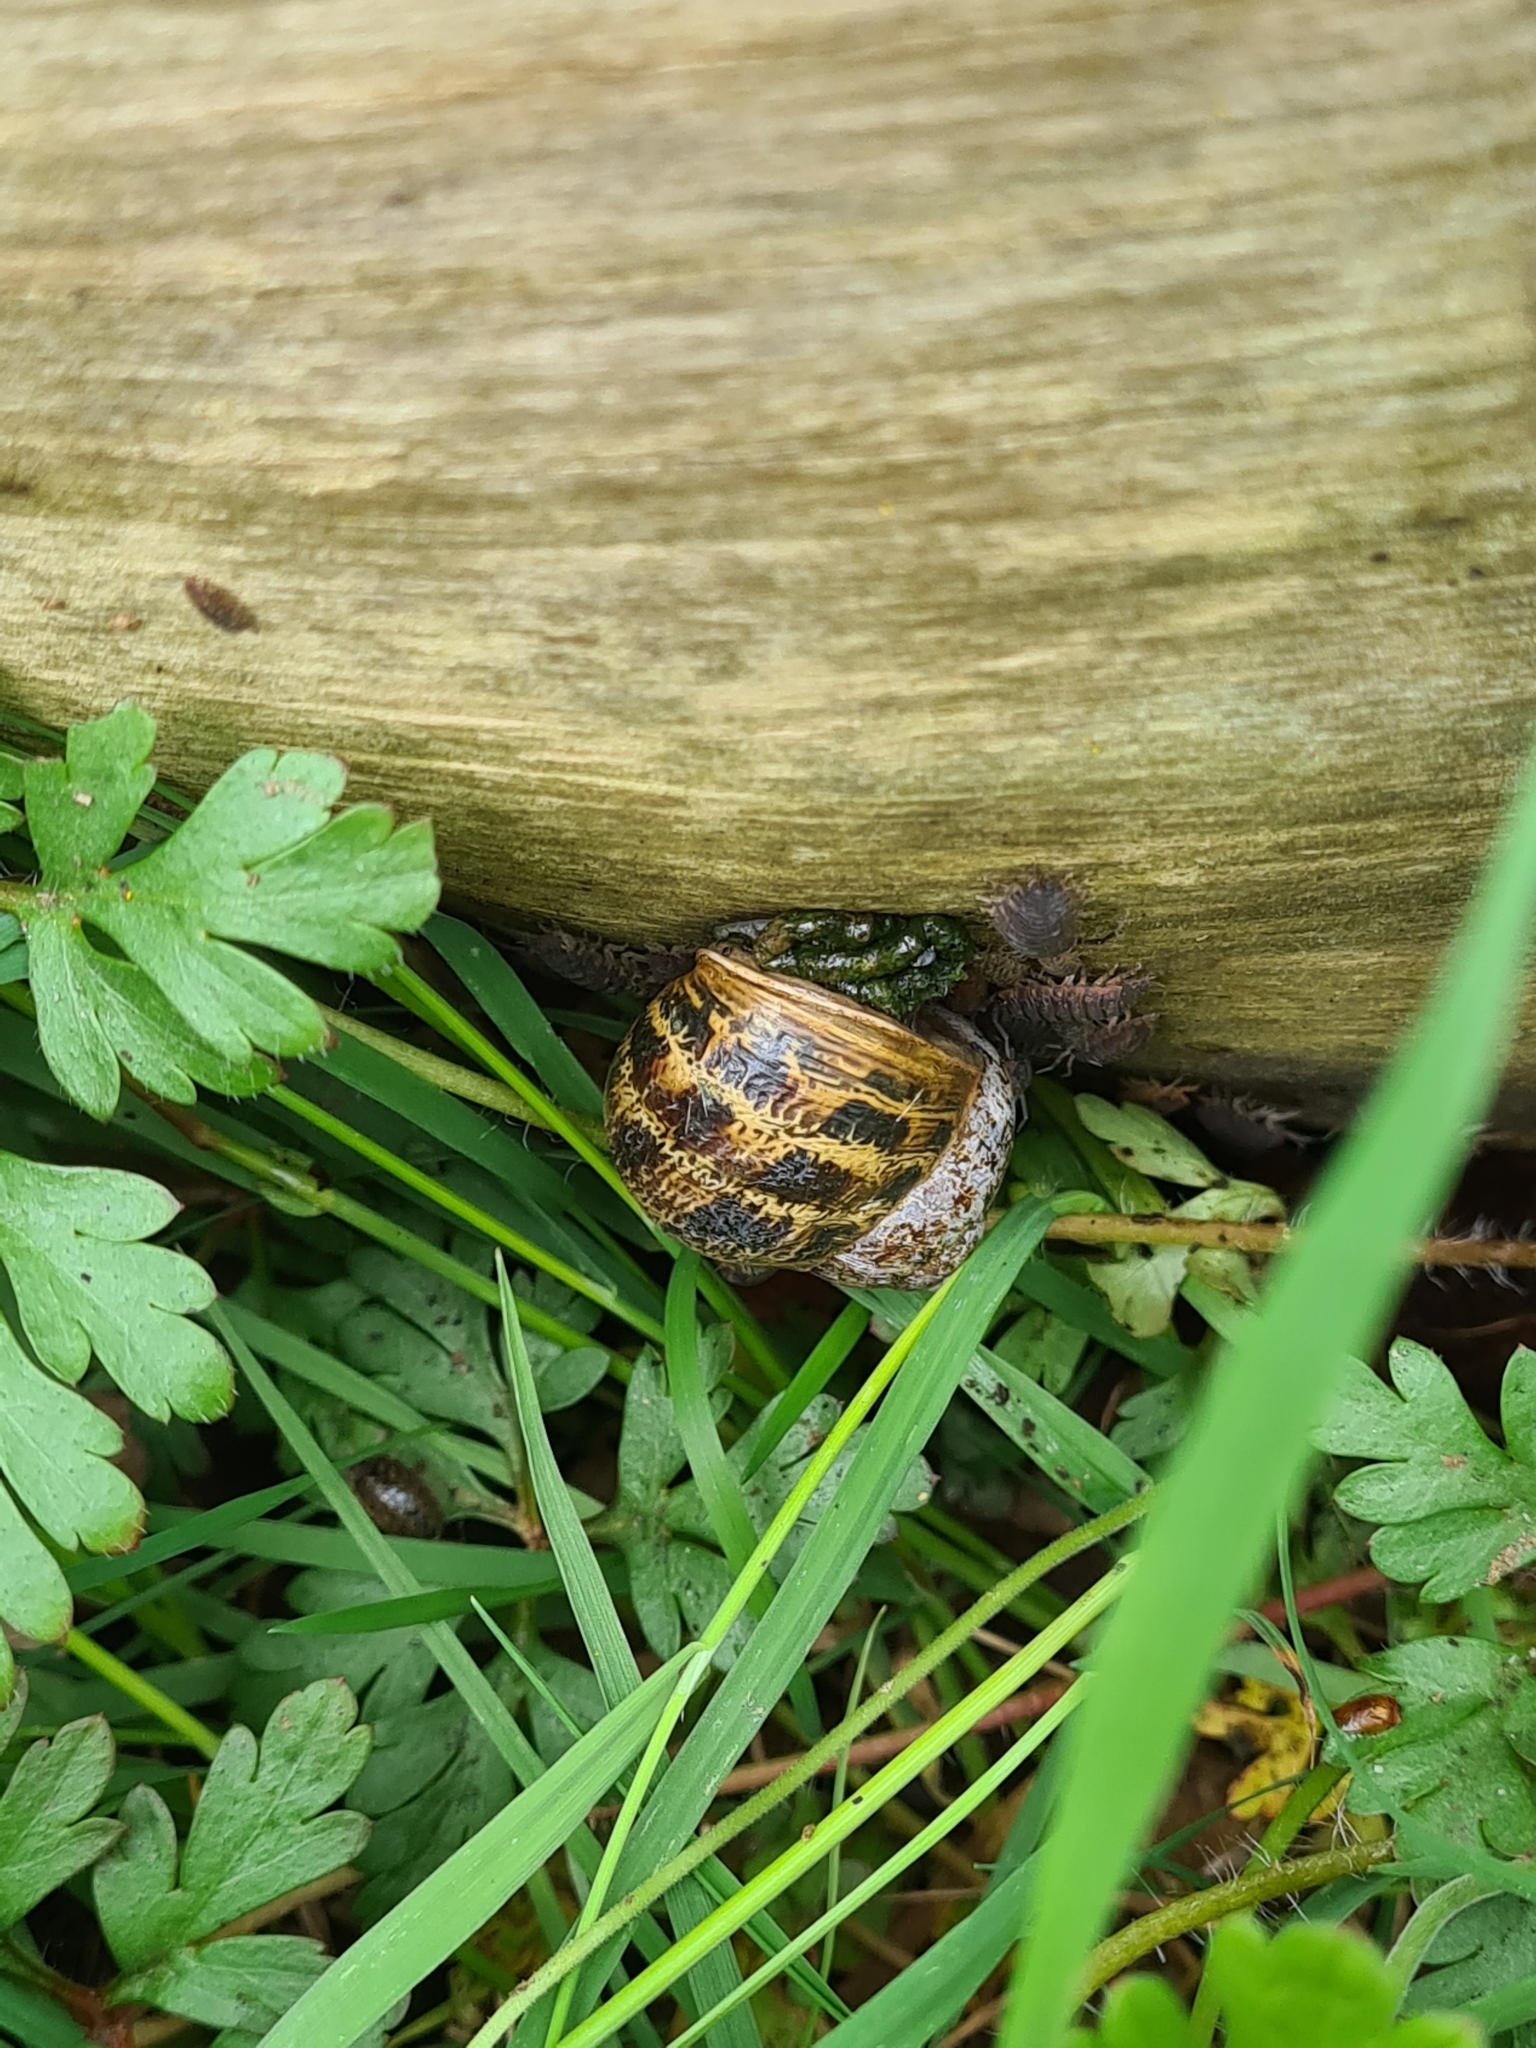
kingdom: Animalia
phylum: Mollusca
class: Gastropoda
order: Stylommatophora
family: Helicidae
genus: Cornu
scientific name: Cornu aspersum
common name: Brown garden snail
